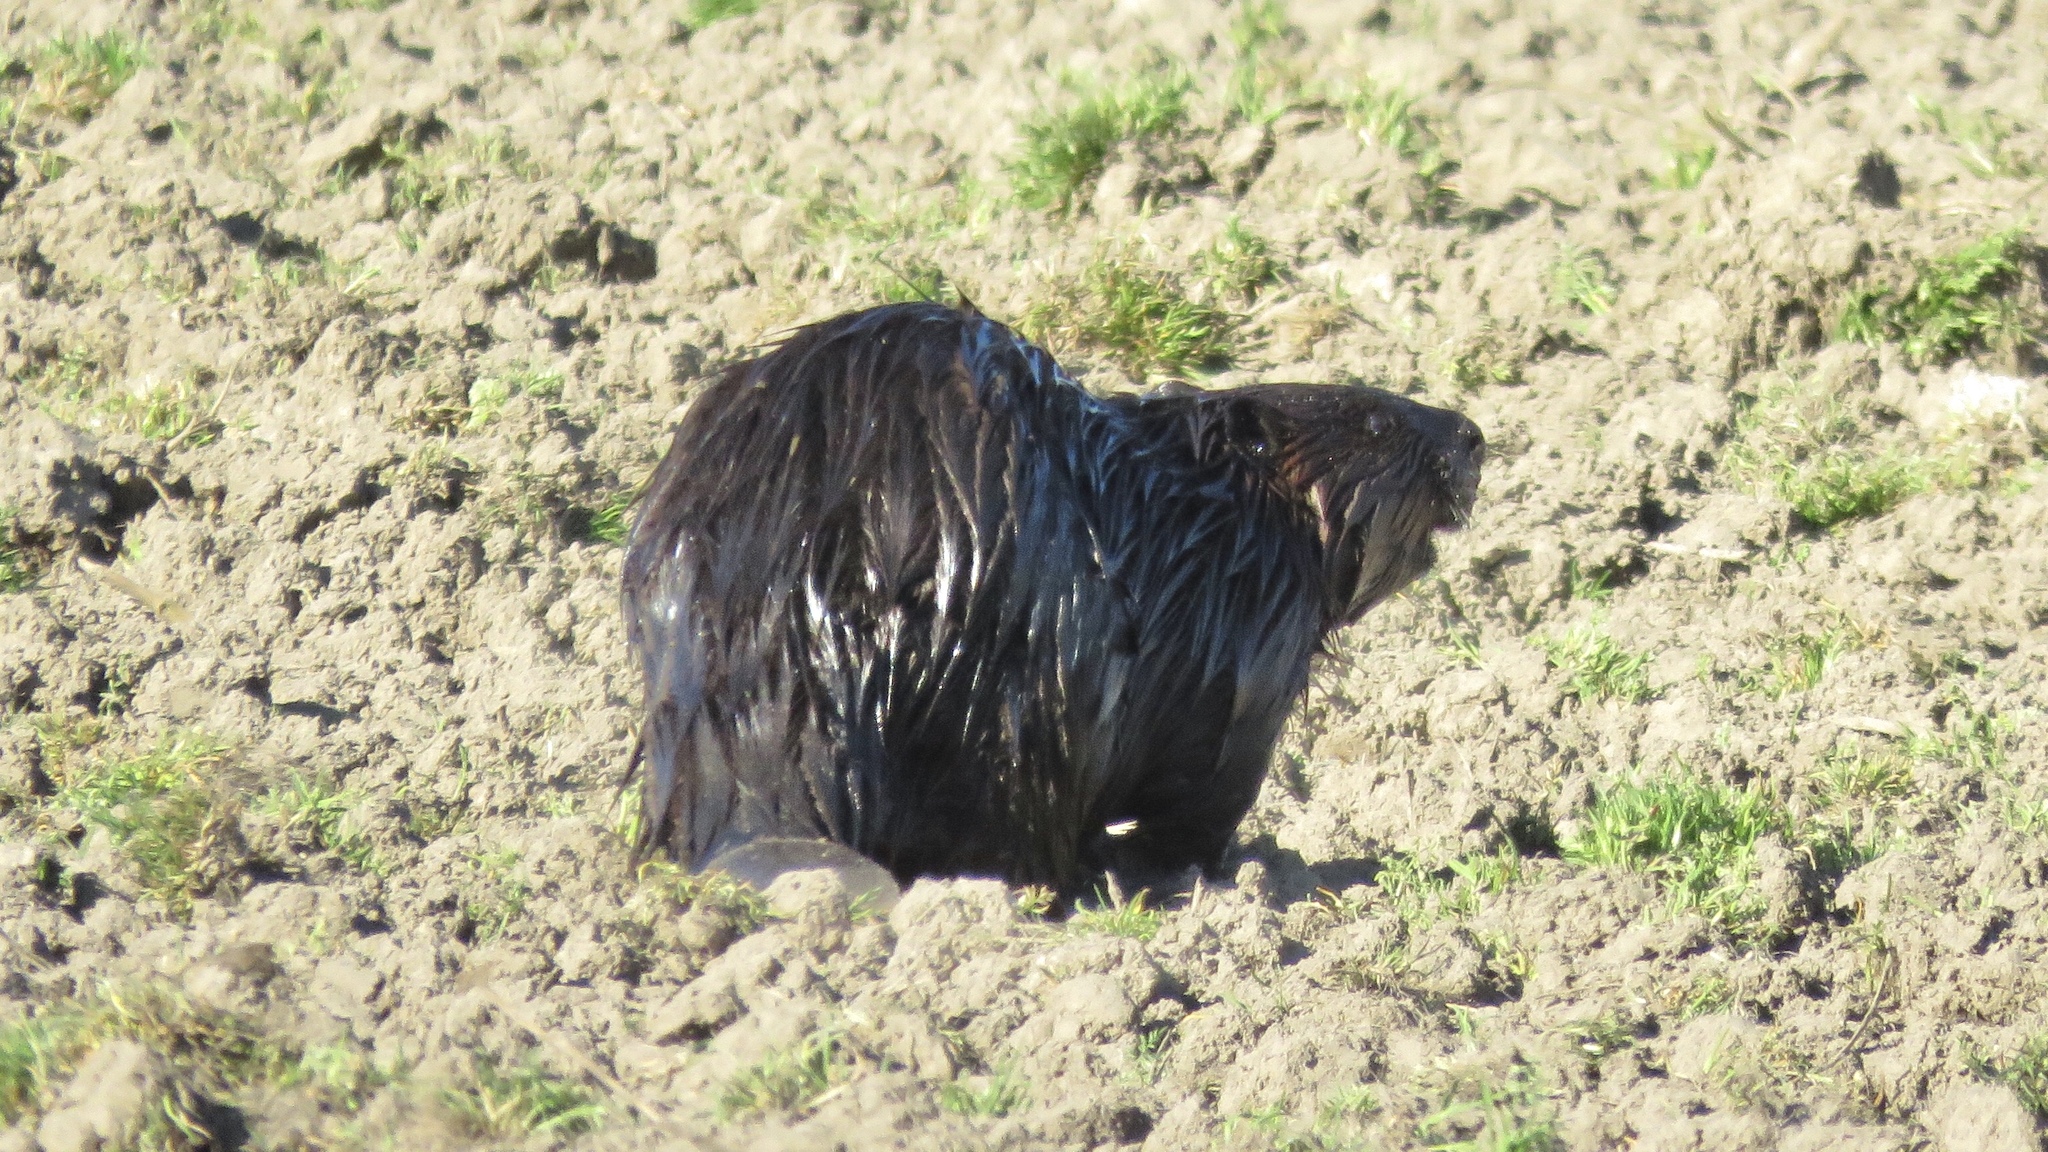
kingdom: Animalia
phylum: Chordata
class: Mammalia
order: Rodentia
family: Castoridae
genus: Castor
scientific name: Castor canadensis
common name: American beaver
